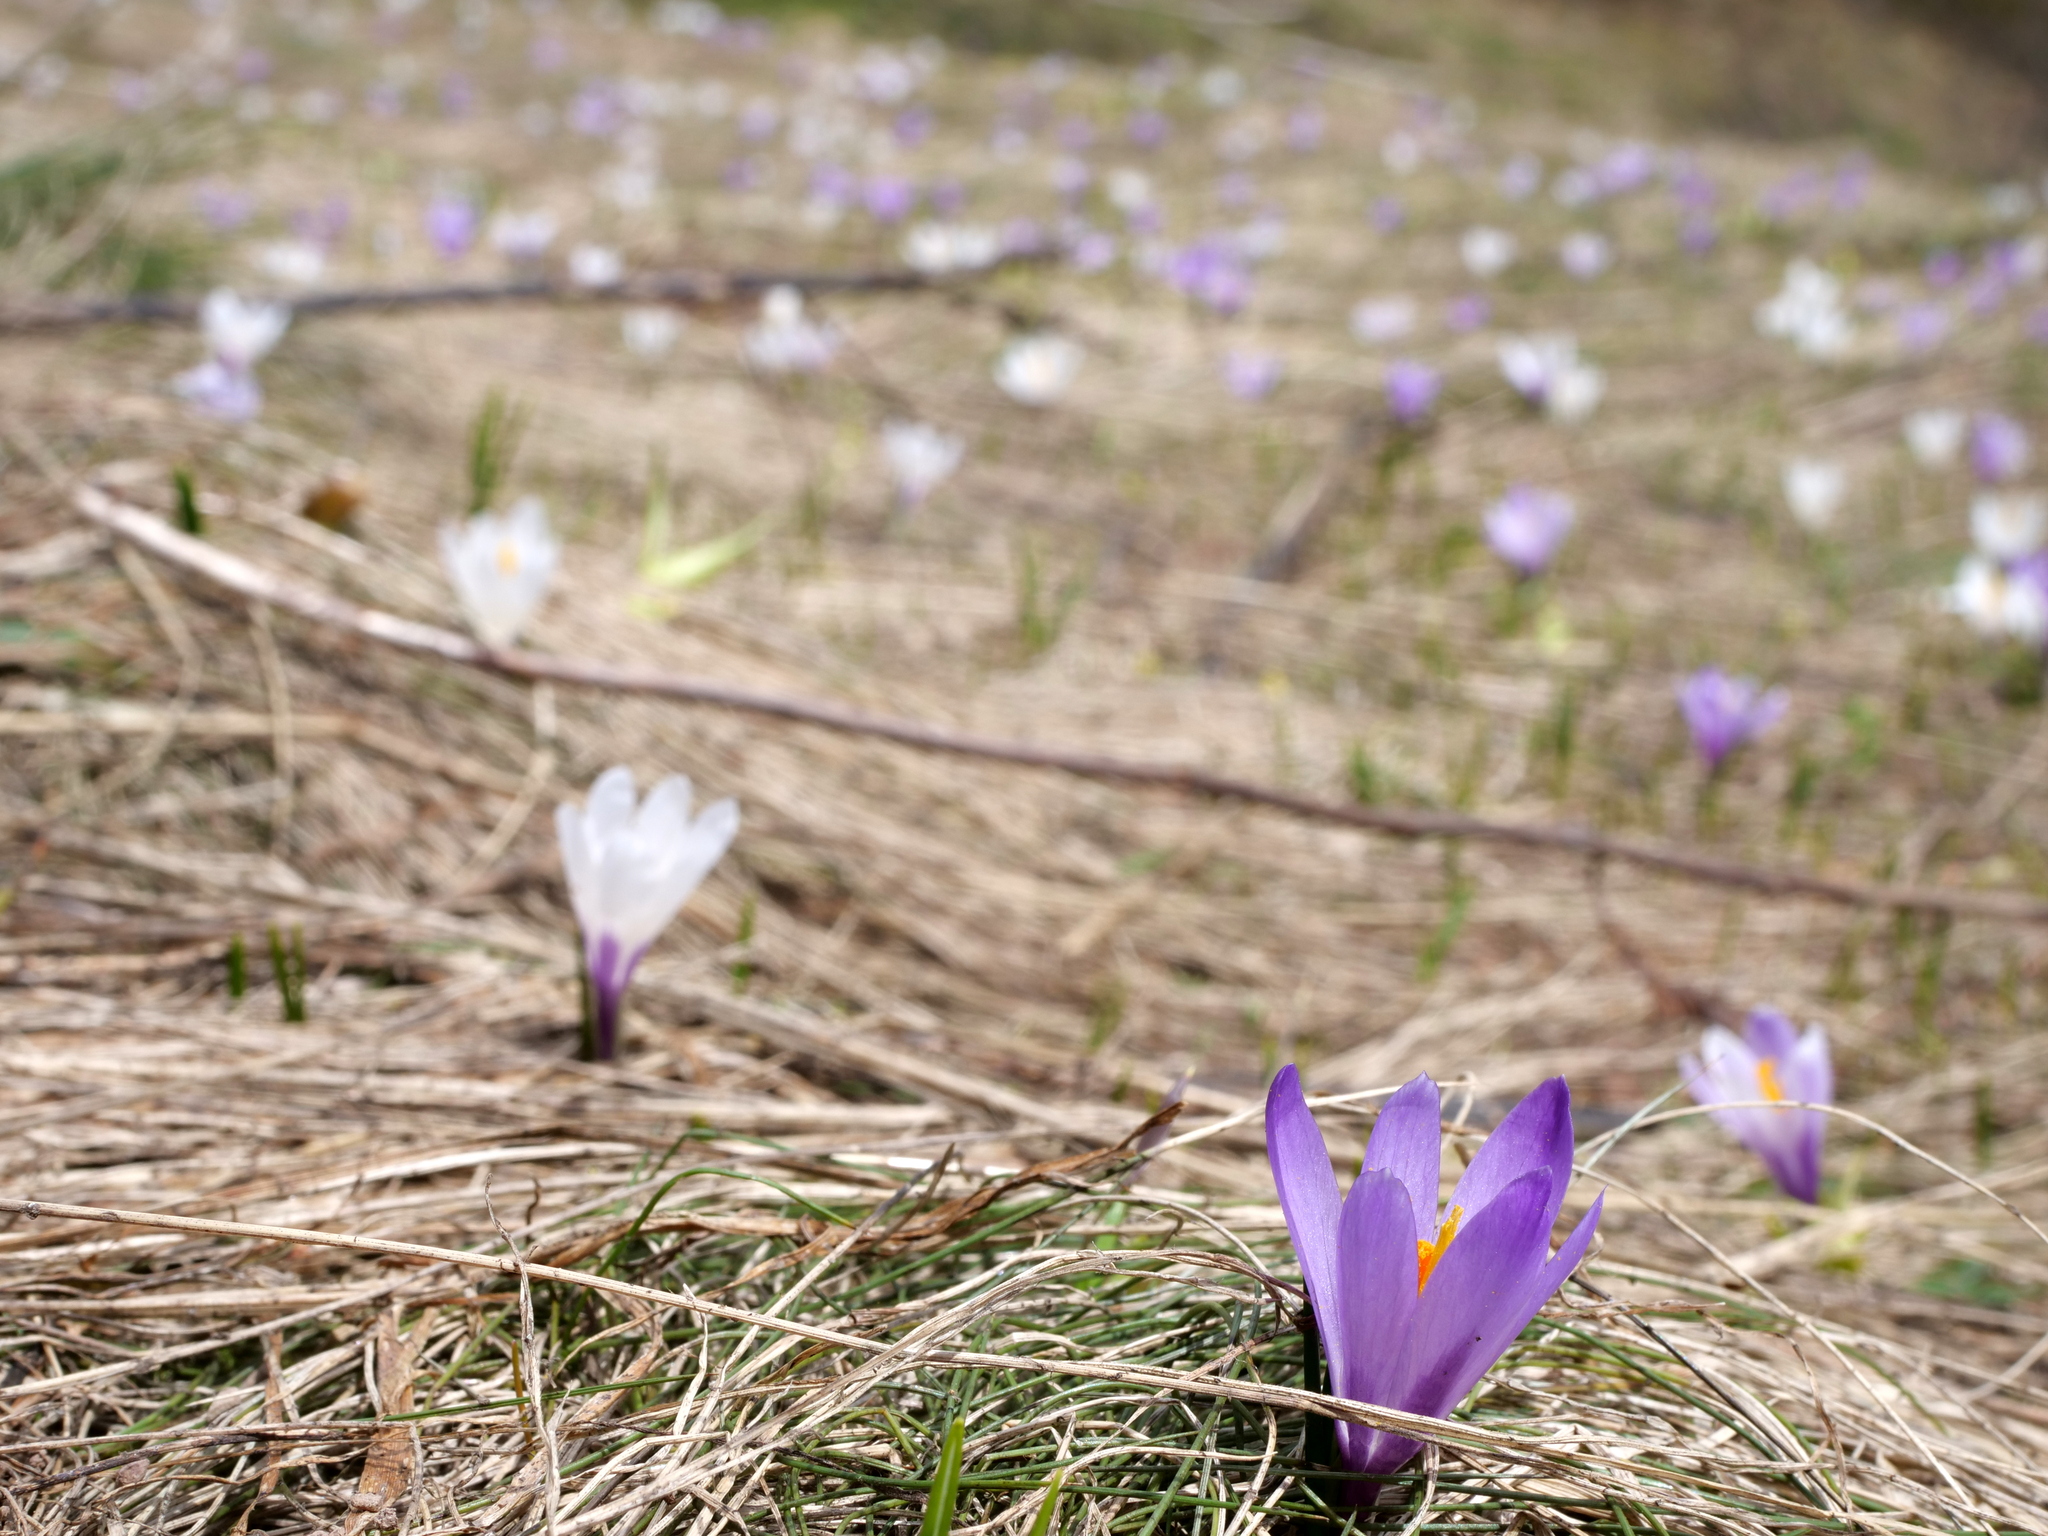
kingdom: Plantae
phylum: Tracheophyta
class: Liliopsida
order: Asparagales
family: Iridaceae
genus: Crocus
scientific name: Crocus vernus
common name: Spring crocus
